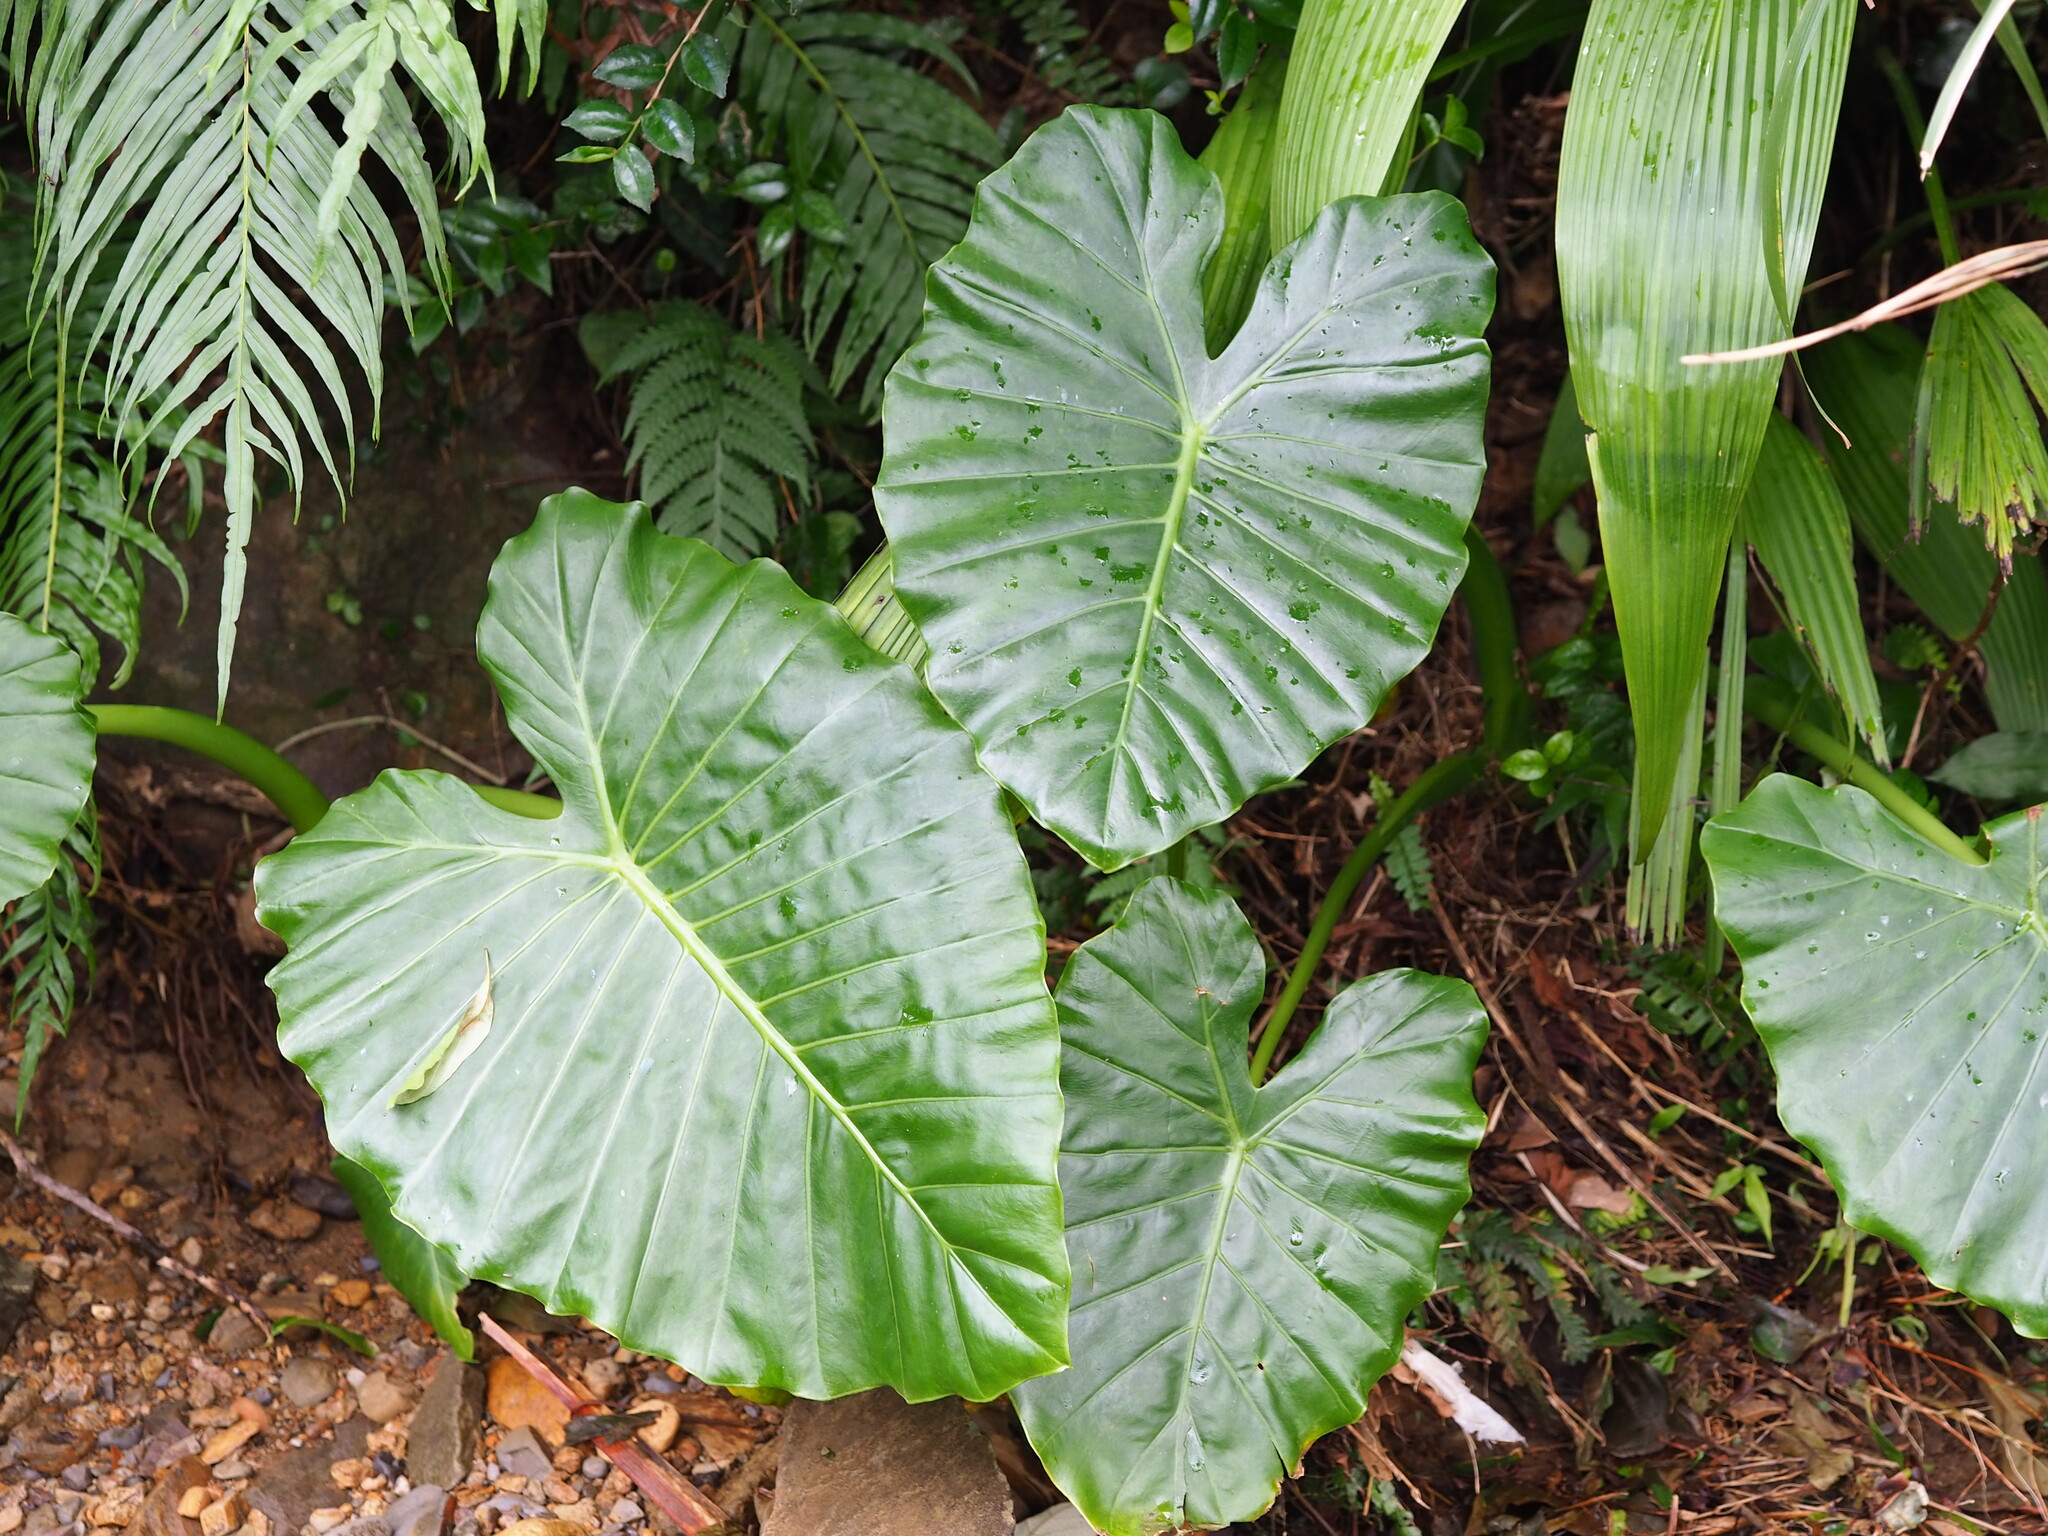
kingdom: Plantae
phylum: Tracheophyta
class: Liliopsida
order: Alismatales
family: Araceae
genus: Alocasia
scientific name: Alocasia odora
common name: Asian taro
